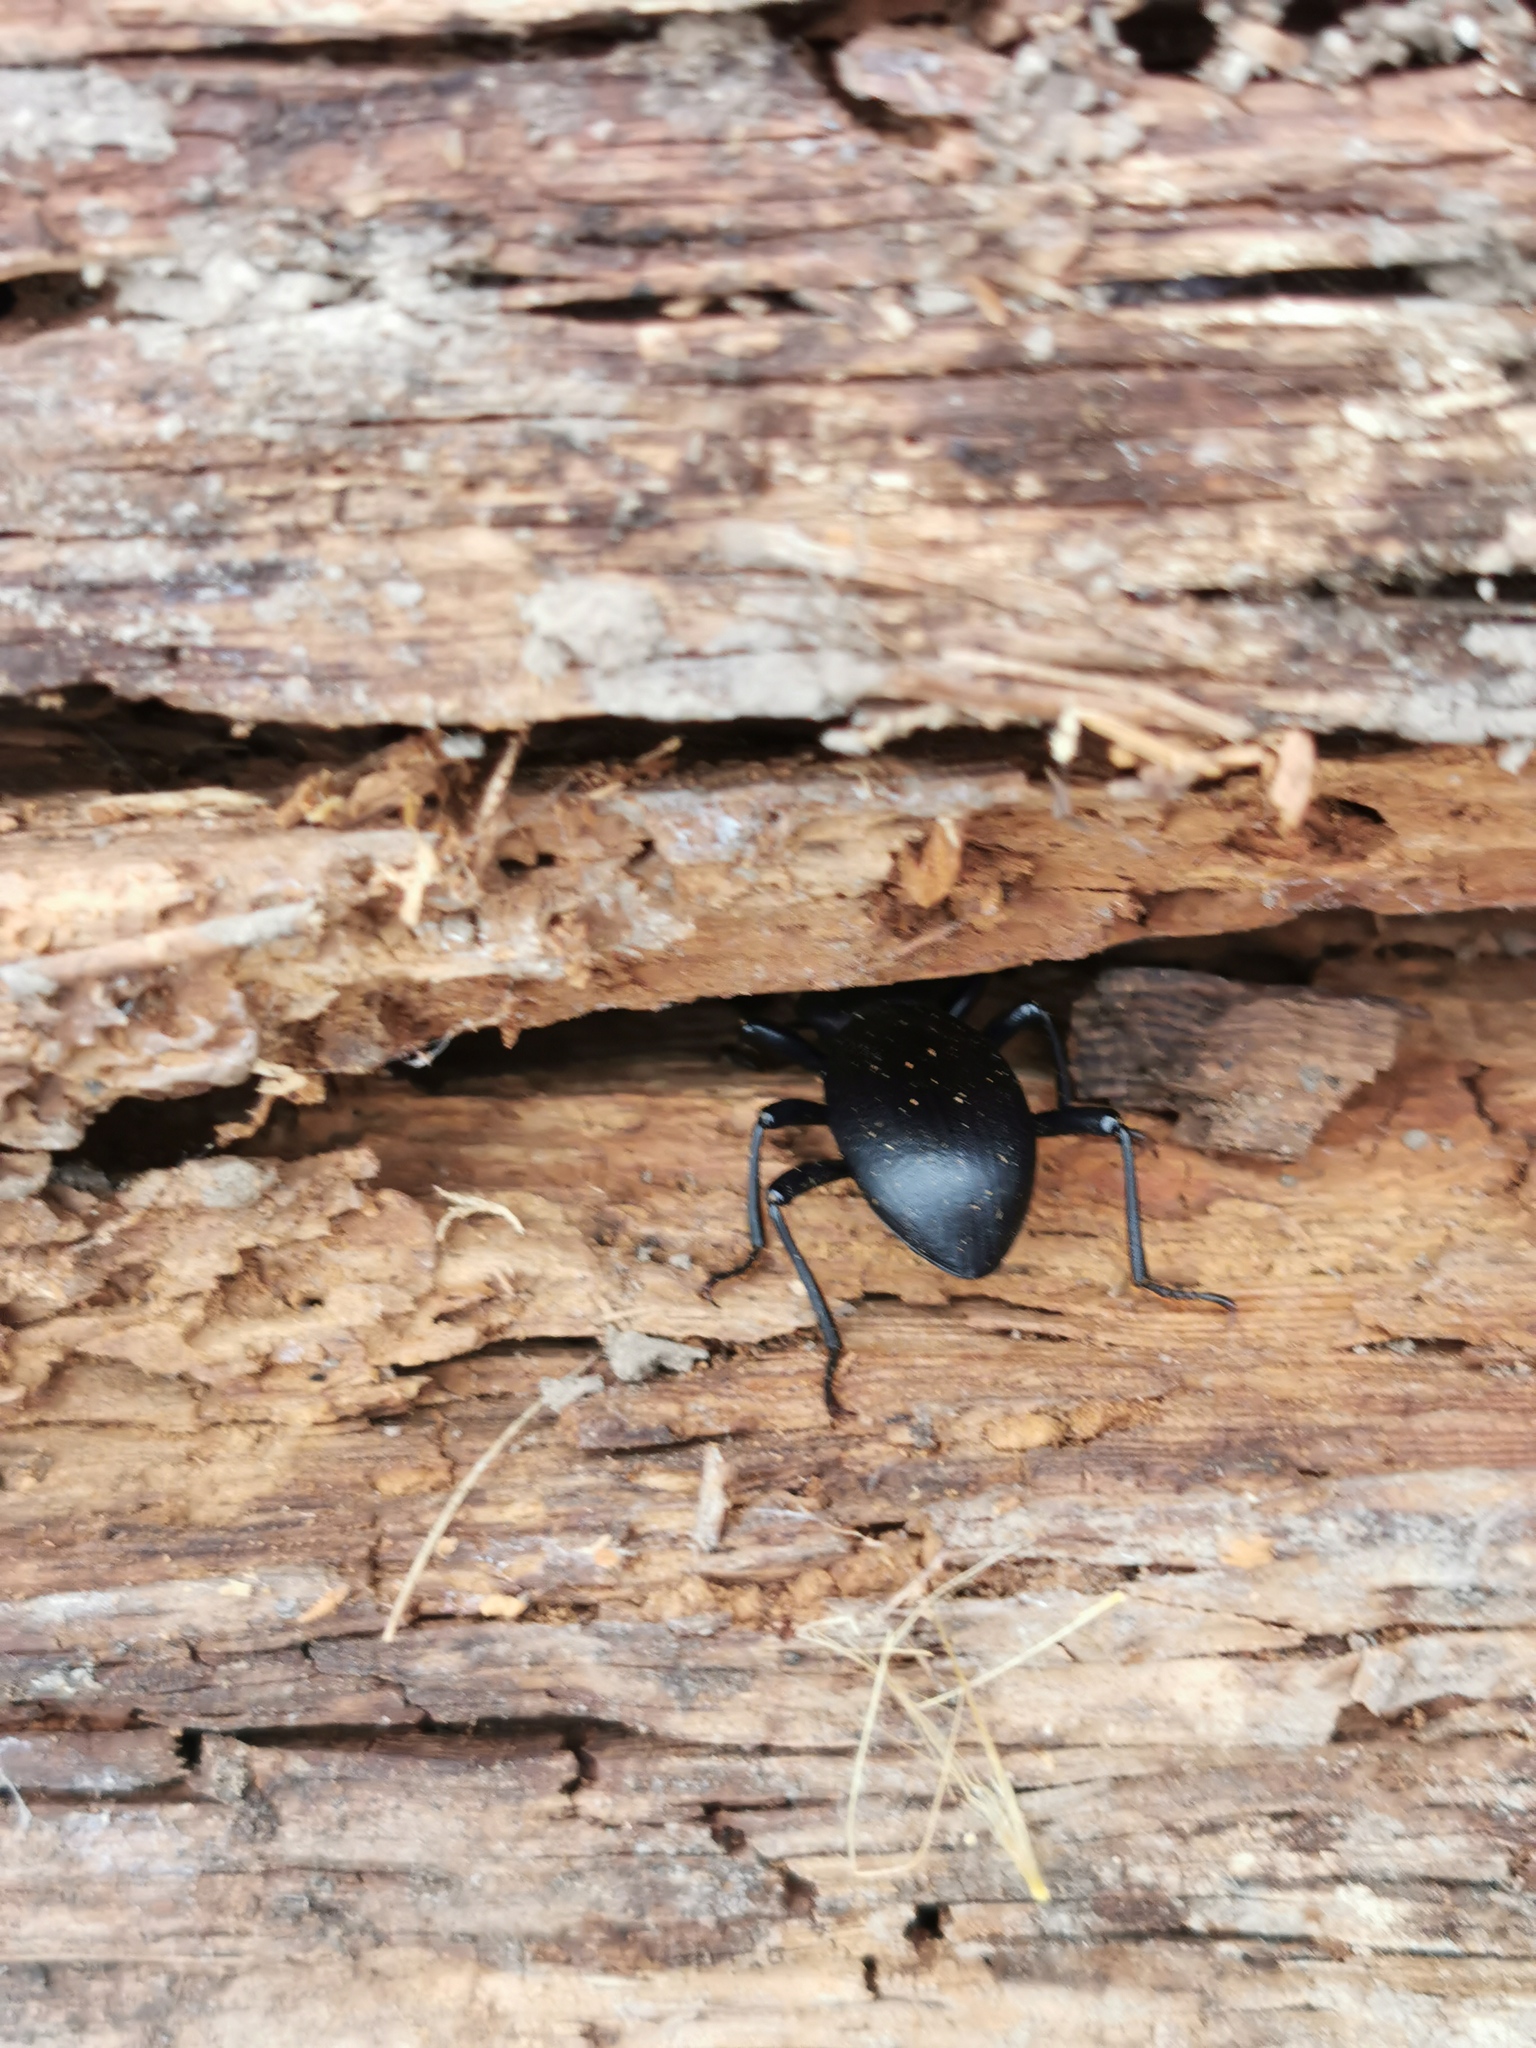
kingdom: Animalia
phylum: Arthropoda
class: Insecta
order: Coleoptera
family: Tenebrionidae
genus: Coelocnemis
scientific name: Coelocnemis dilaticollis
